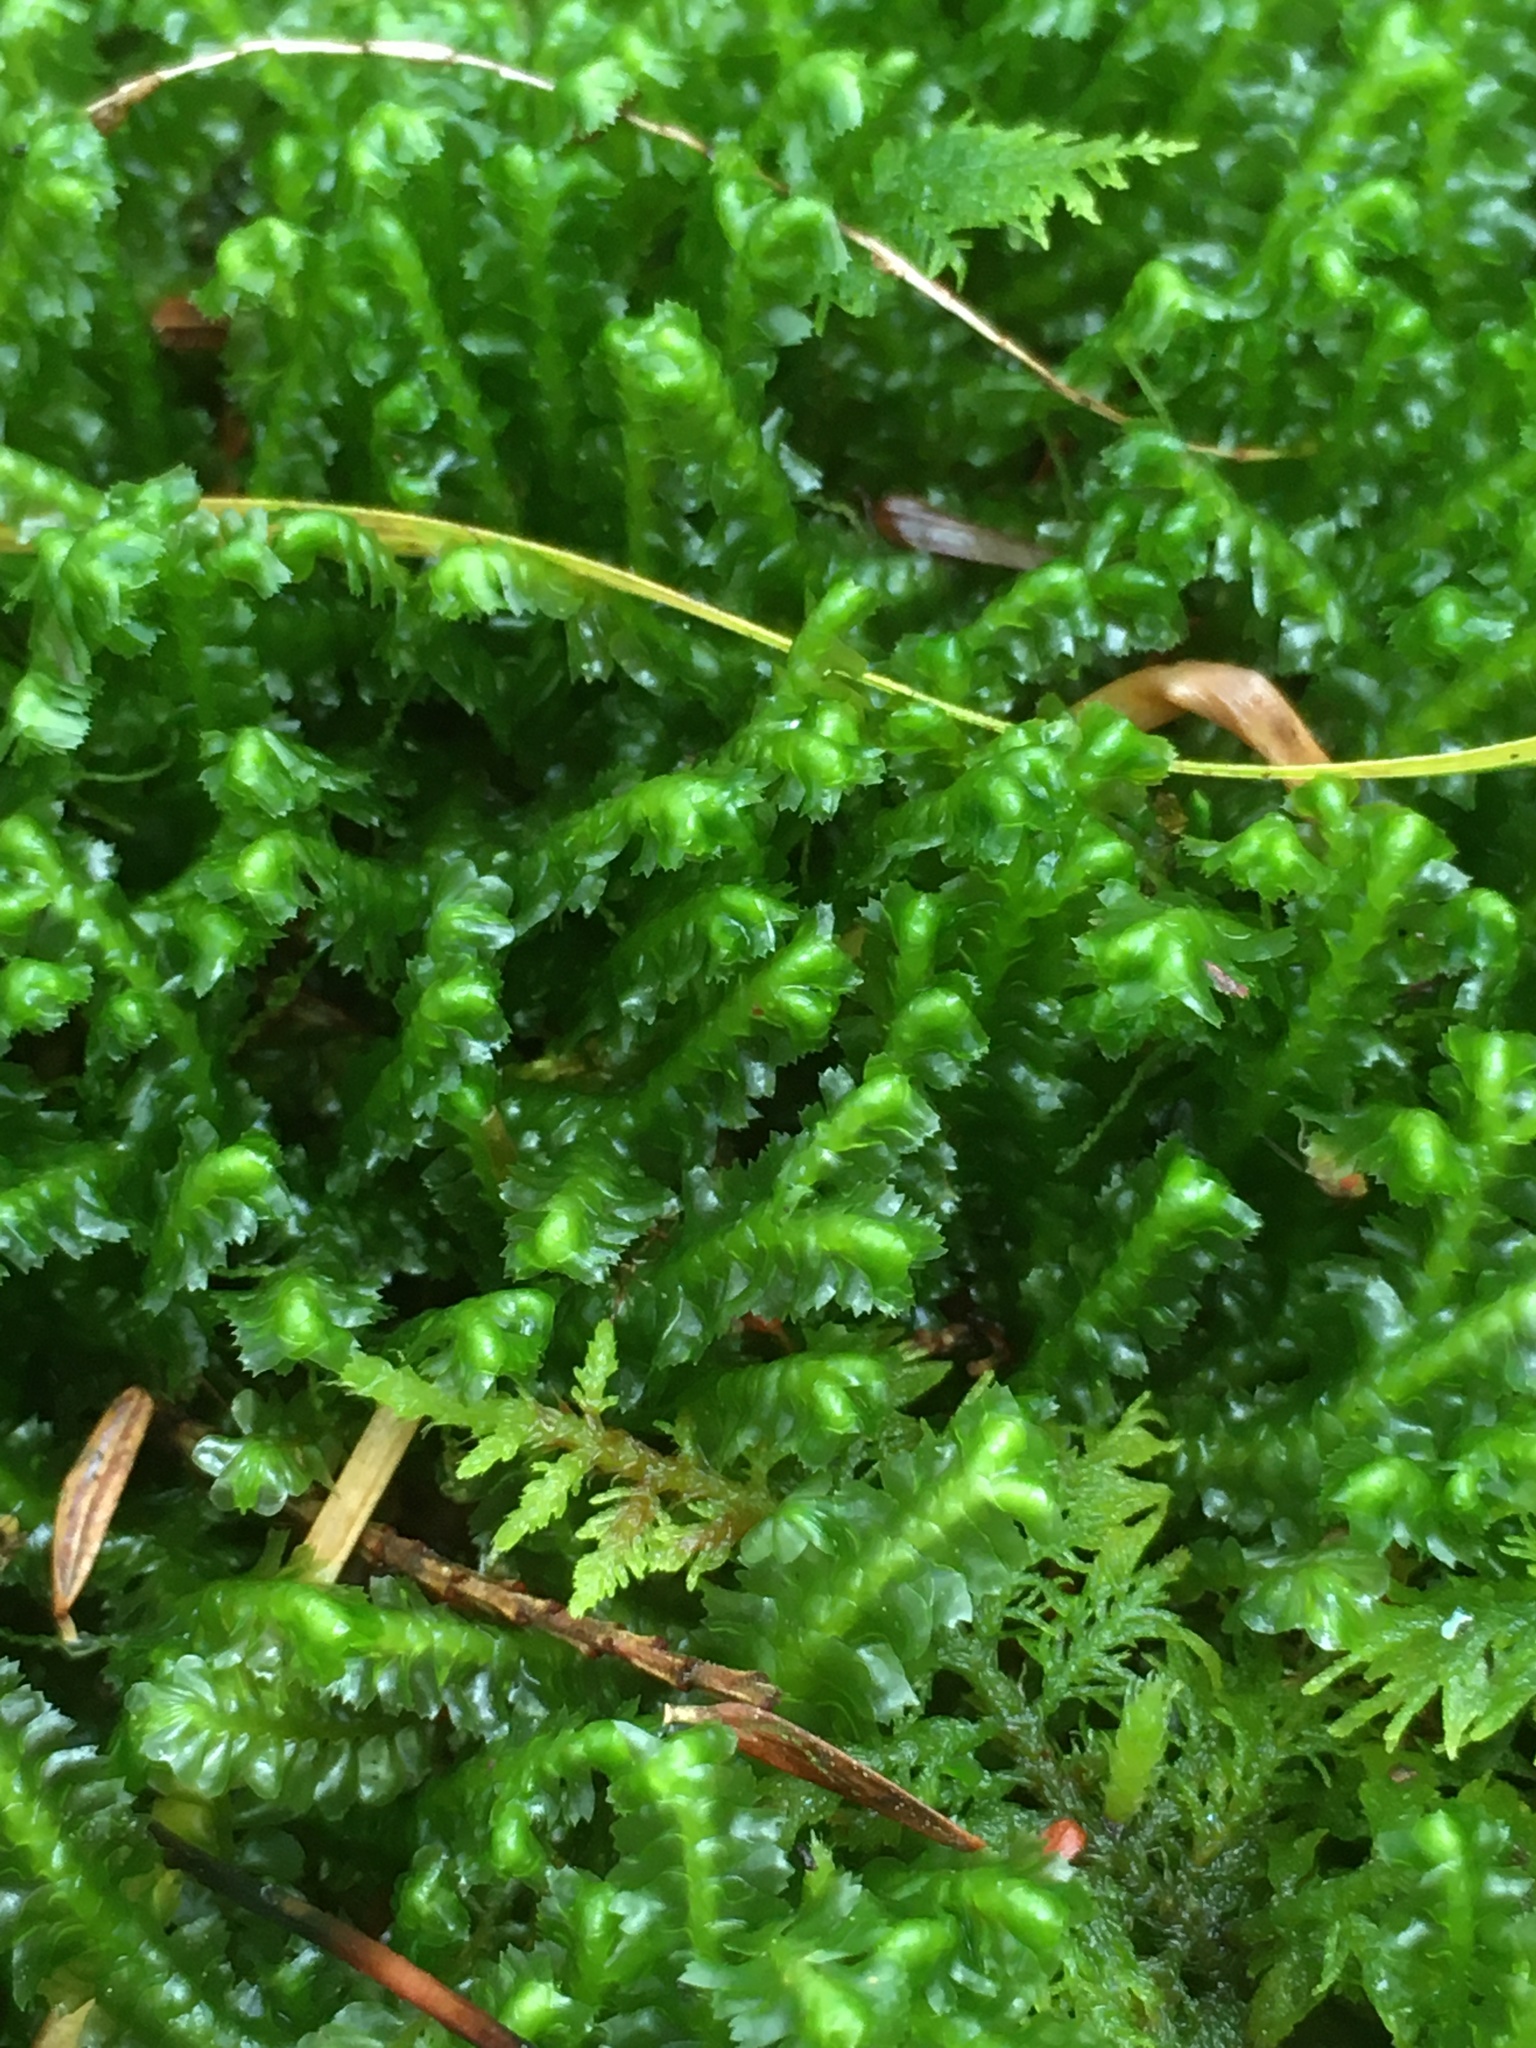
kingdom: Plantae
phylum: Marchantiophyta
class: Jungermanniopsida
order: Jungermanniales
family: Lepidoziaceae
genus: Bazzania
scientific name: Bazzania trilobata
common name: Three-lobed whipwort
